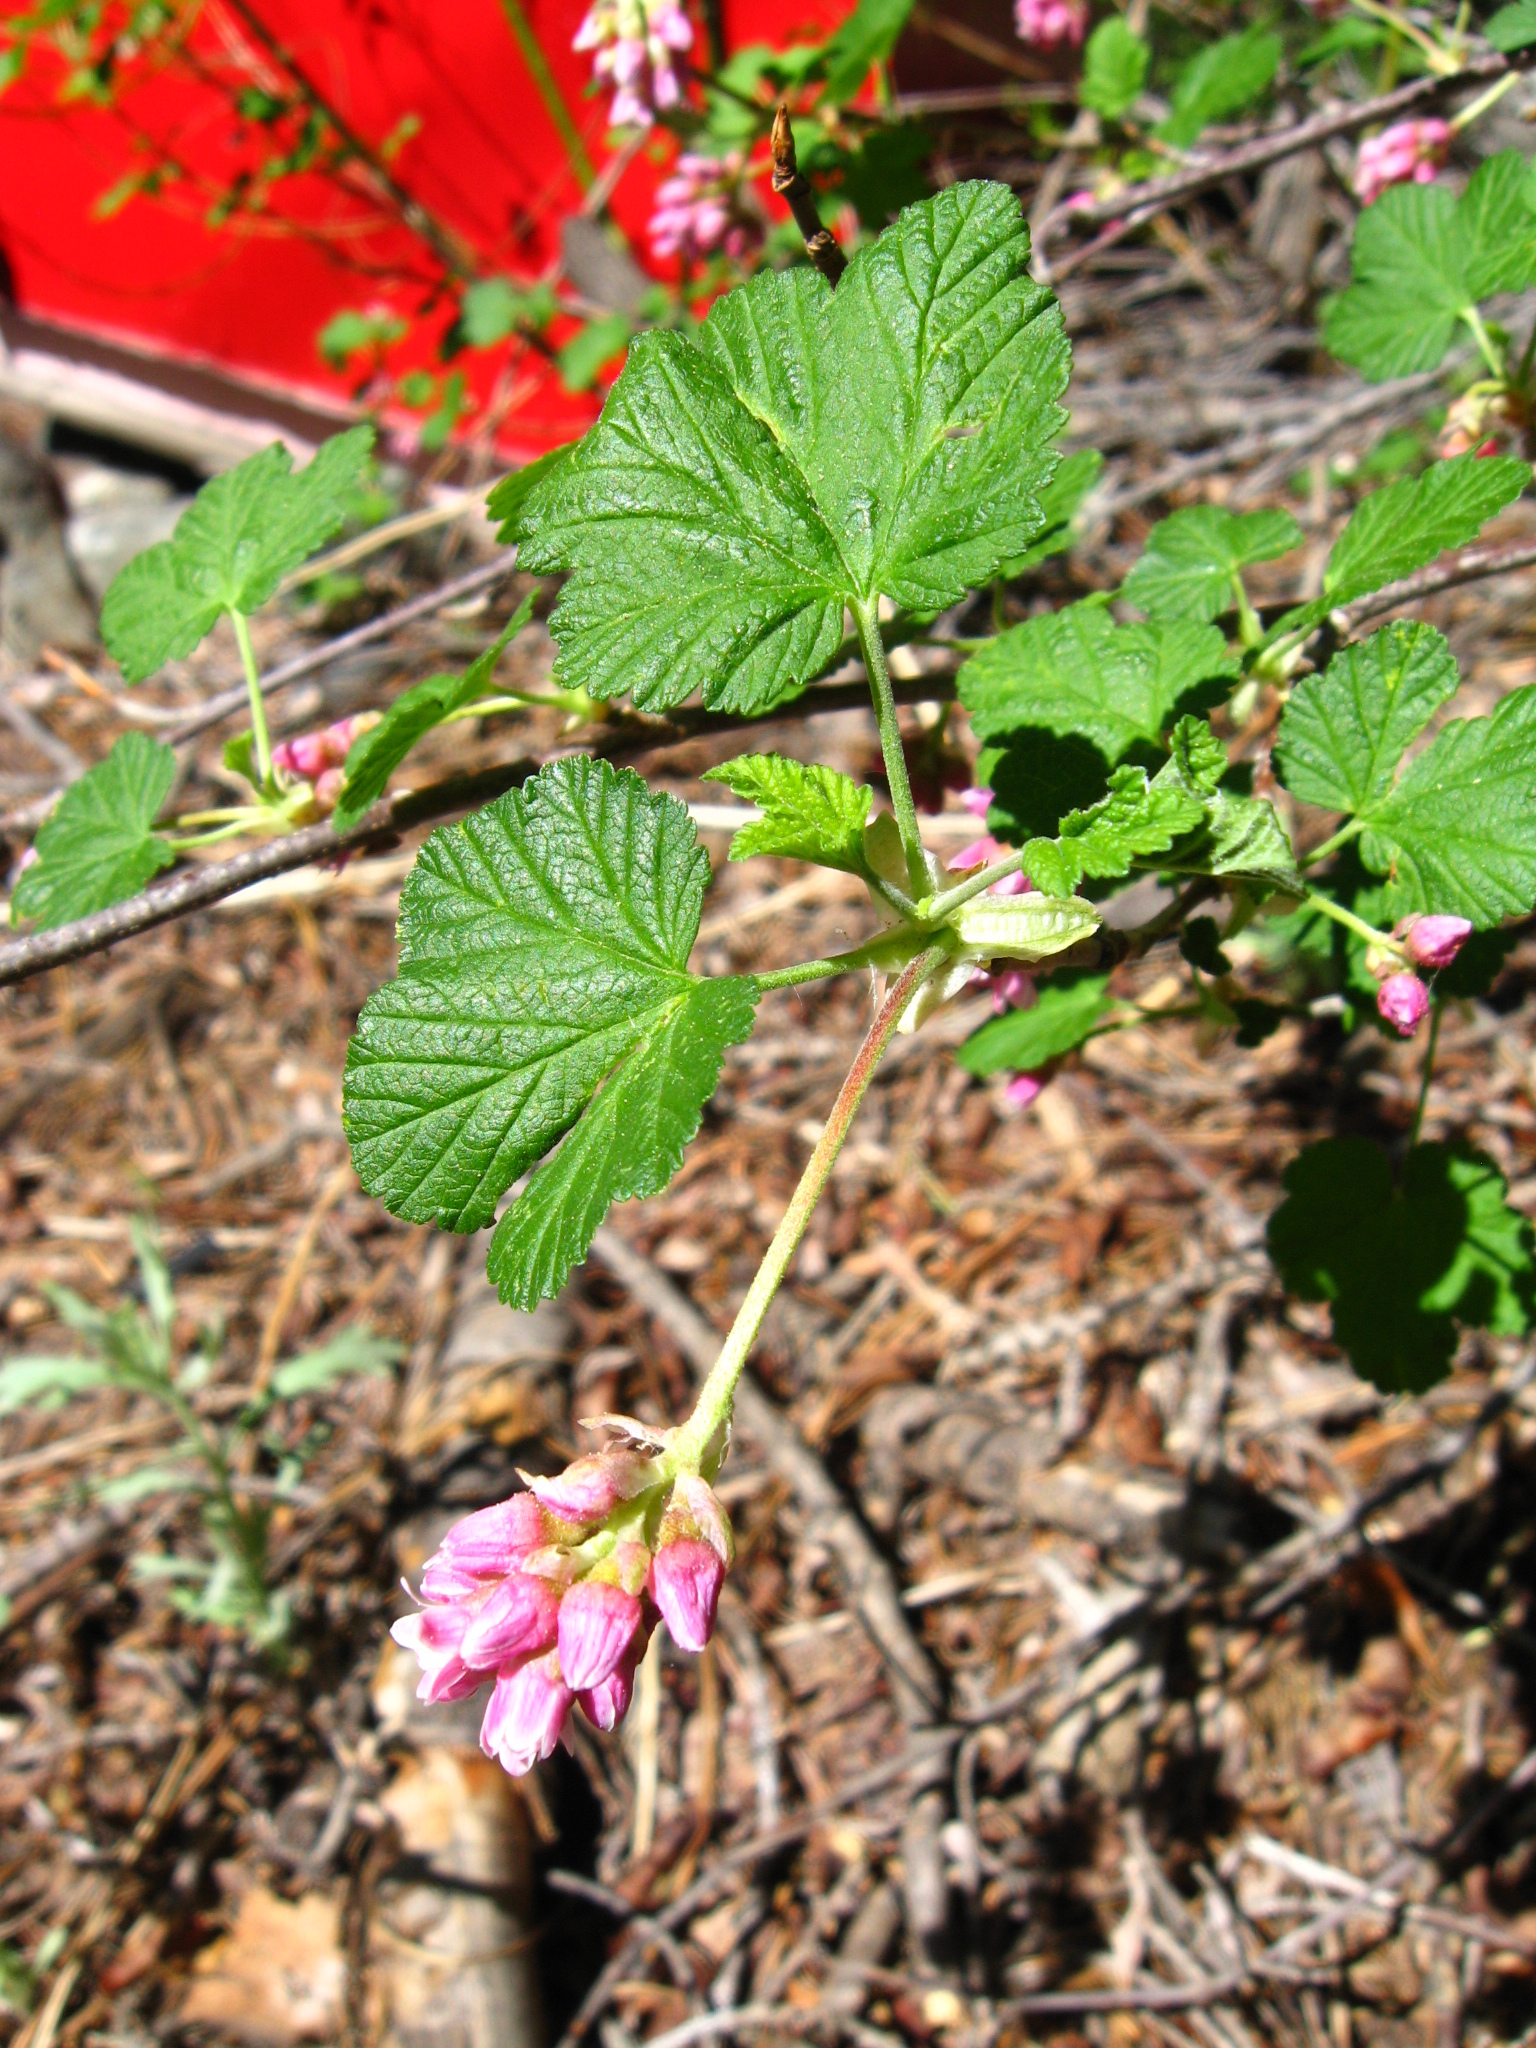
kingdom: Plantae
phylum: Tracheophyta
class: Magnoliopsida
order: Saxifragales
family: Grossulariaceae
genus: Ribes
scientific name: Ribes nevadense
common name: Mountain pink currant
